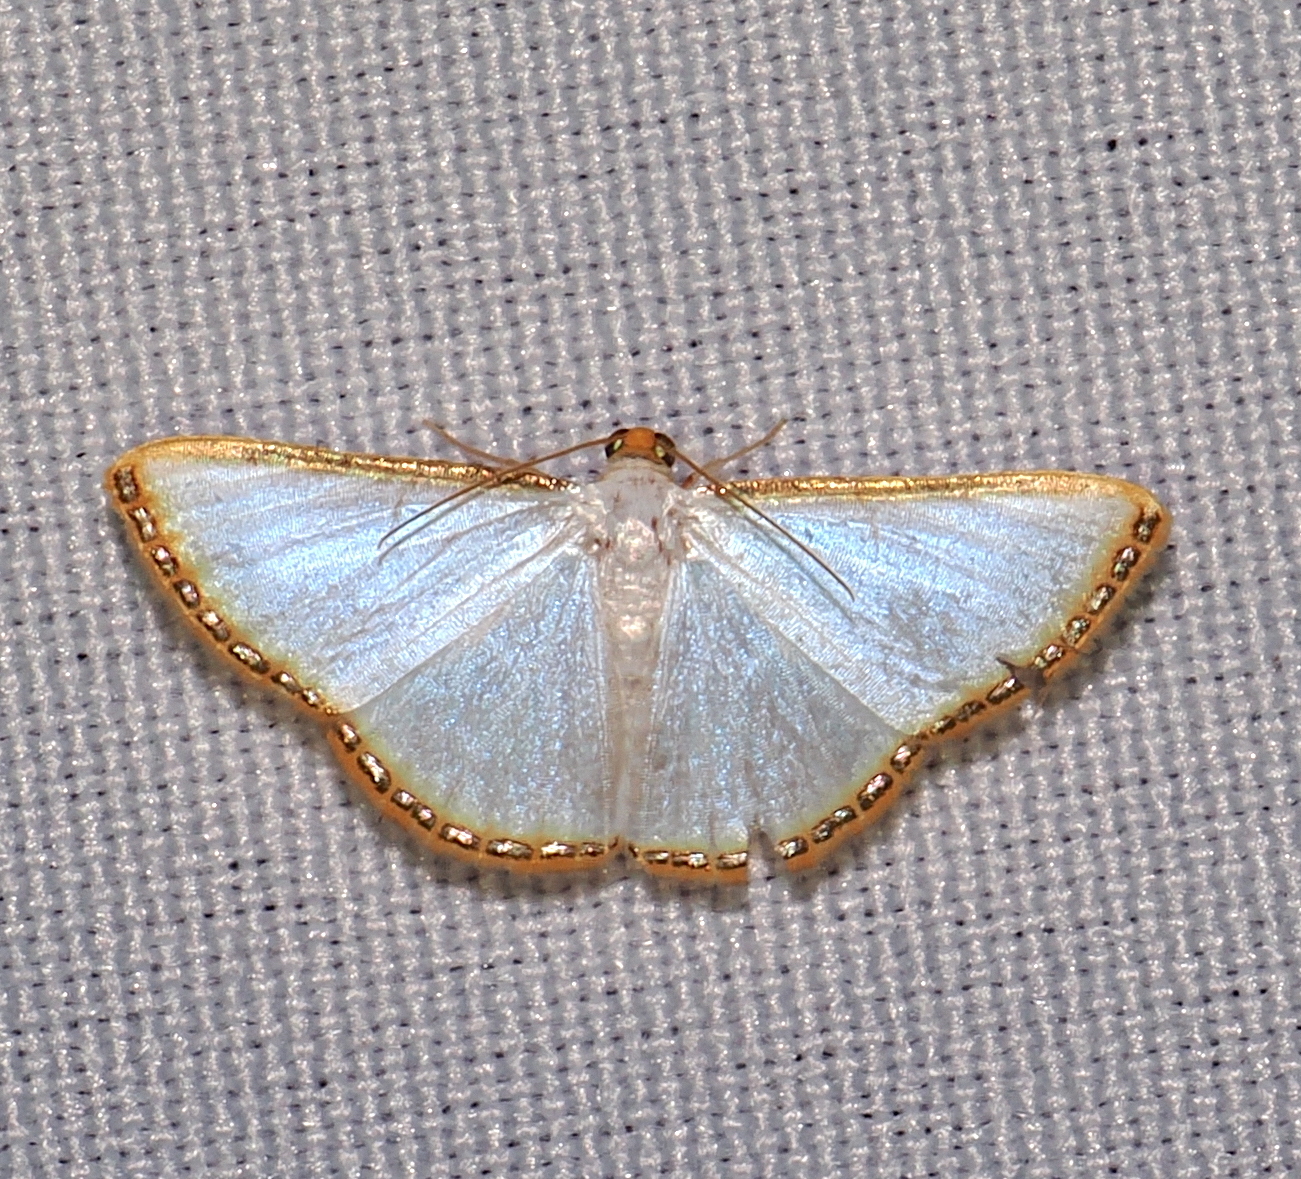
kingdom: Animalia
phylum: Arthropoda
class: Insecta
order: Lepidoptera
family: Geometridae
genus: Leuciris
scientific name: Leuciris fimbriaria
